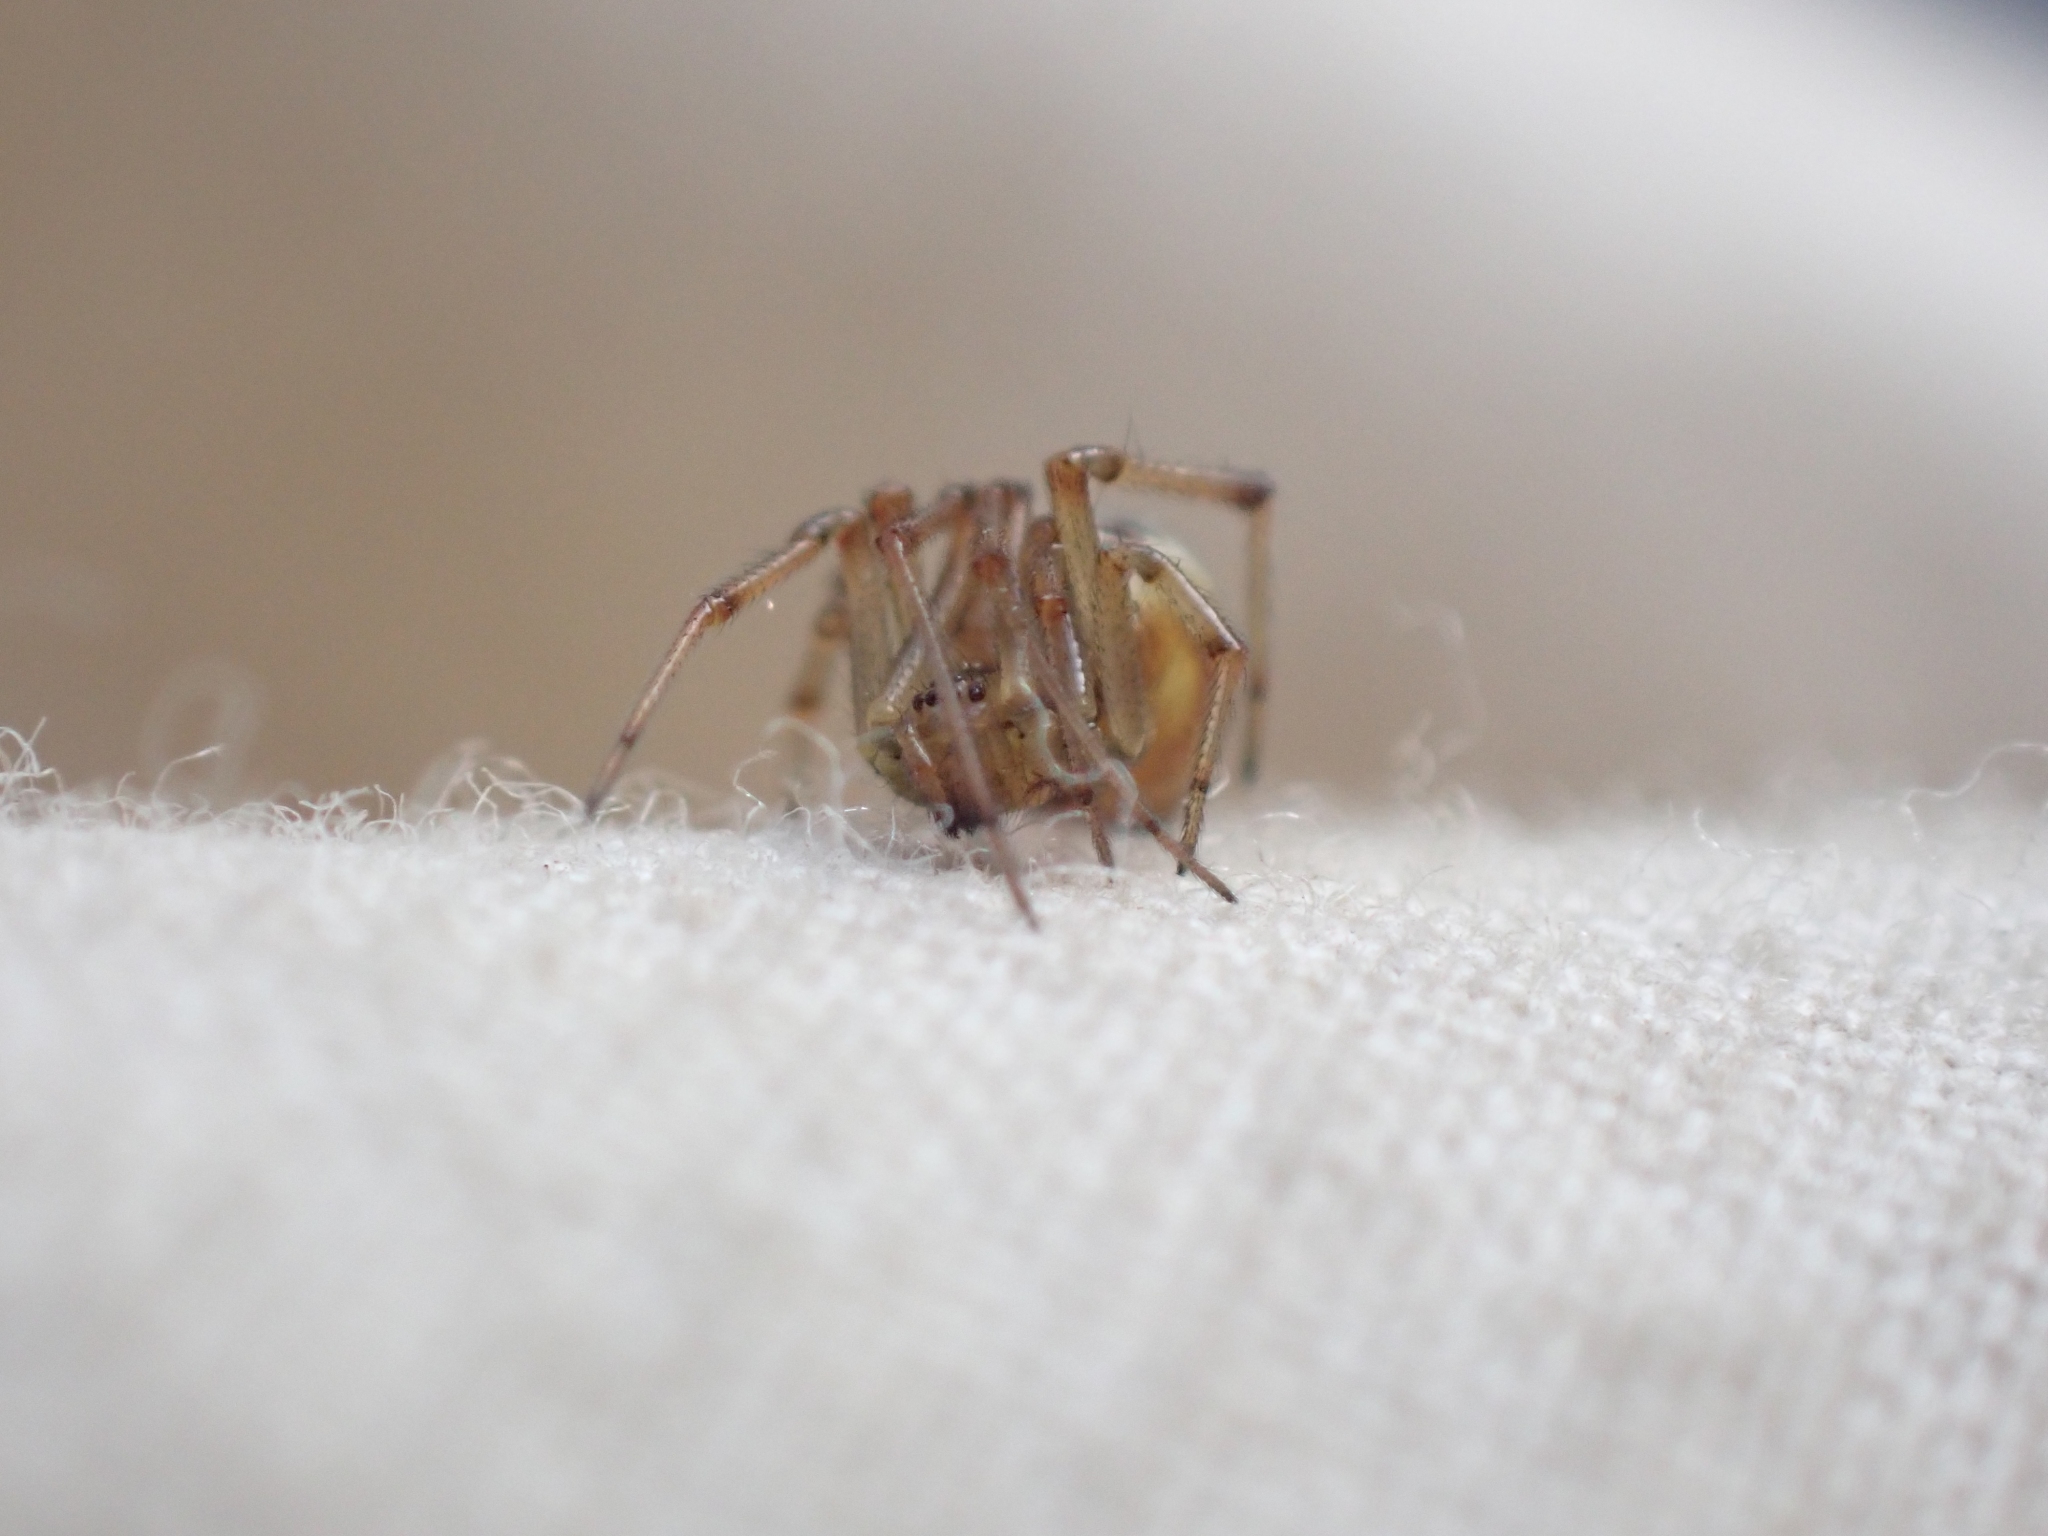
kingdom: Animalia
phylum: Arthropoda
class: Arachnida
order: Araneae
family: Theridiidae
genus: Phylloneta
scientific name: Phylloneta impressa
